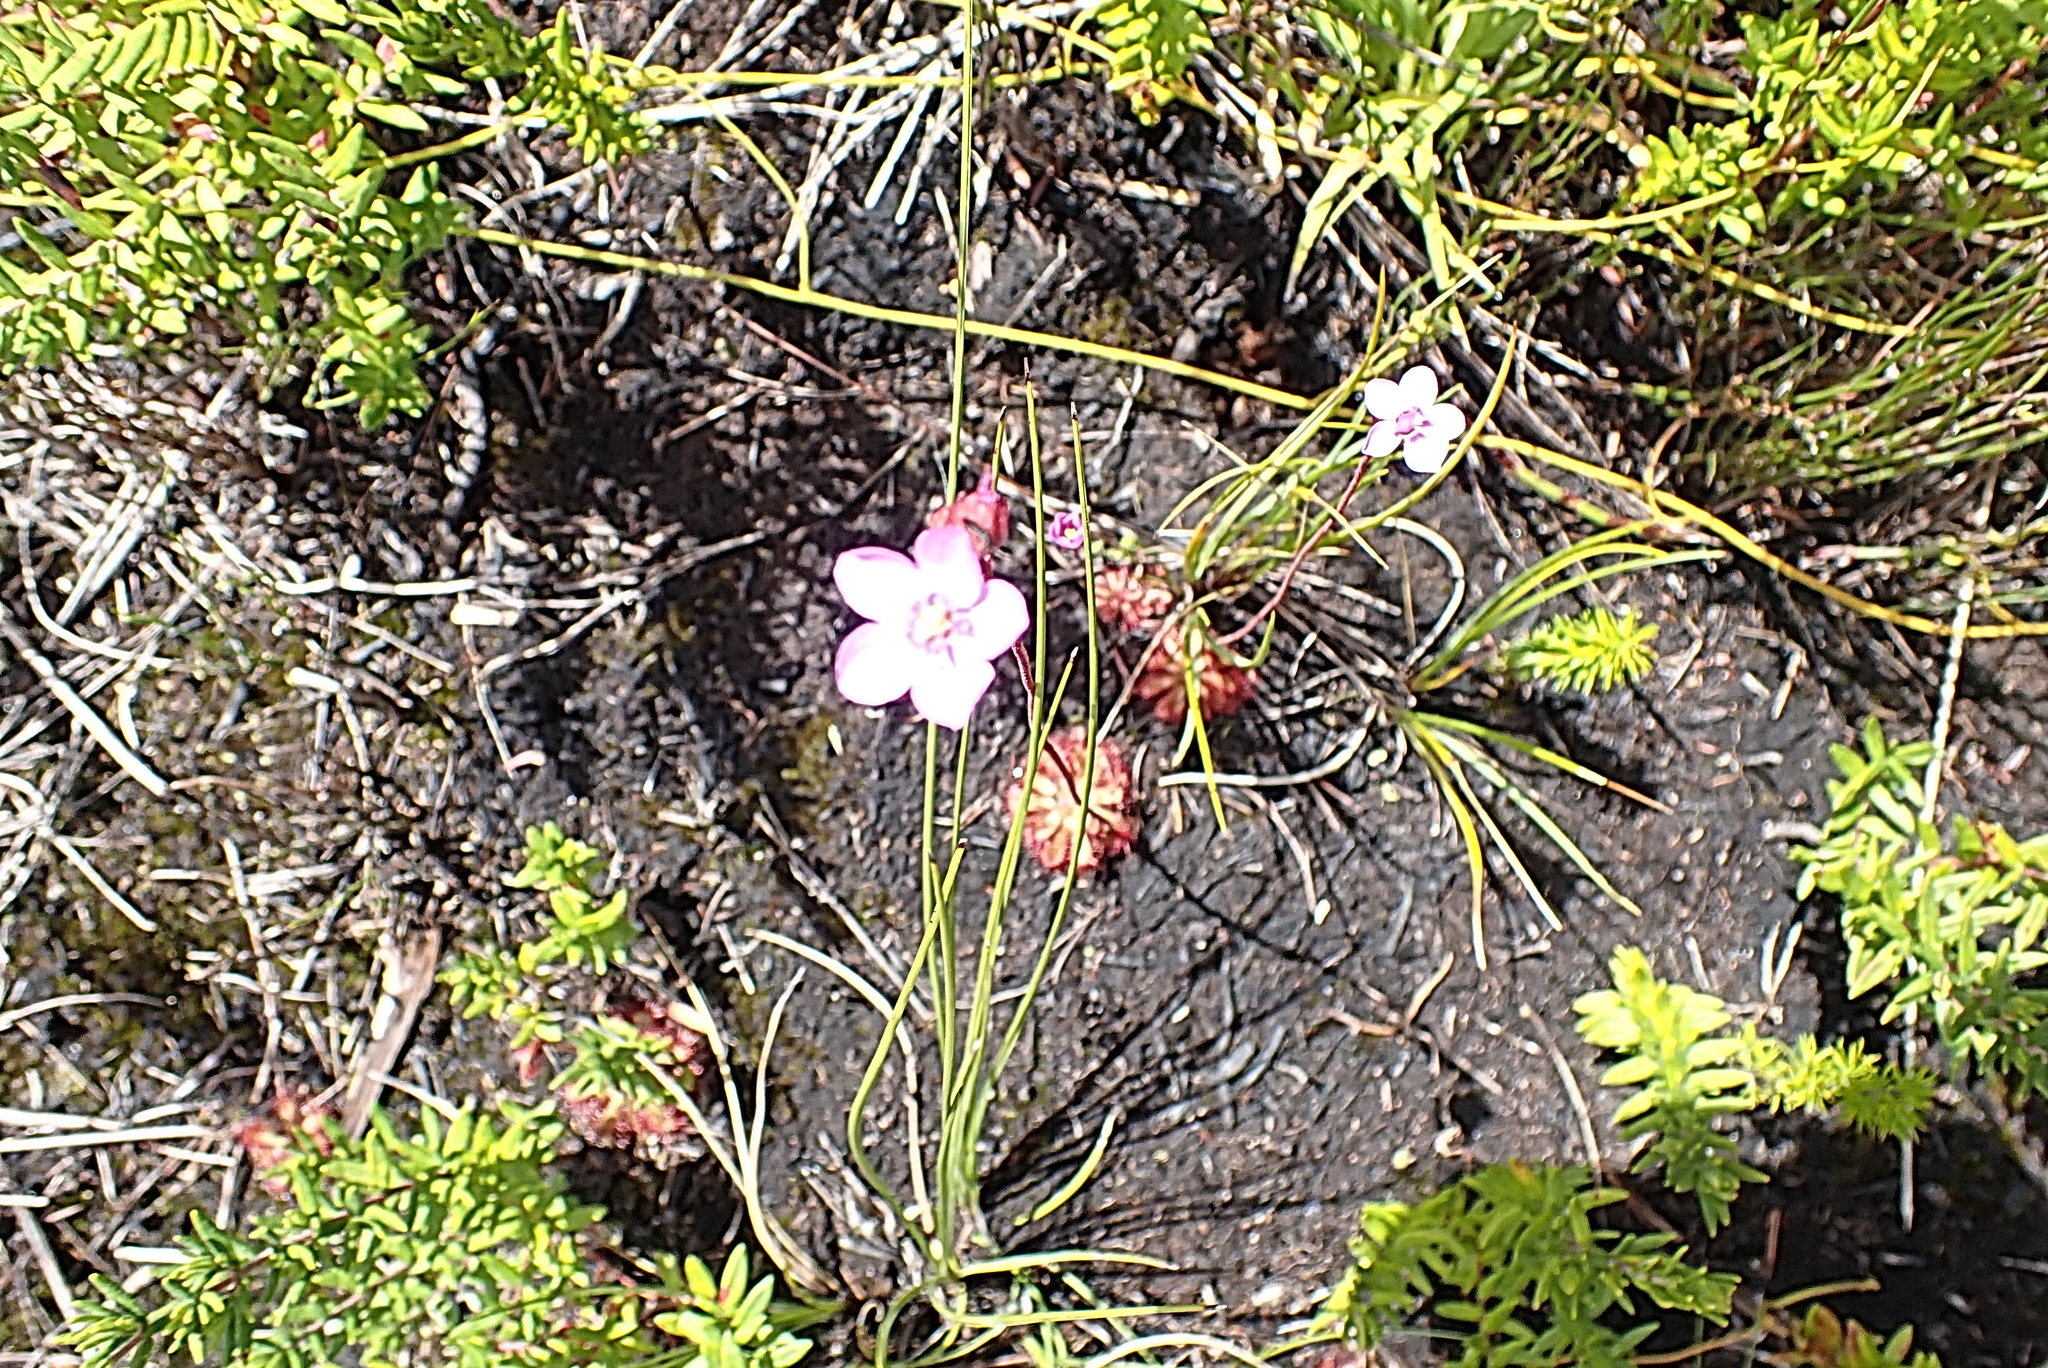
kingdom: Plantae
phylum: Tracheophyta
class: Magnoliopsida
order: Caryophyllales
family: Droseraceae
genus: Drosera
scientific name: Drosera aliciae
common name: Alice sundew
